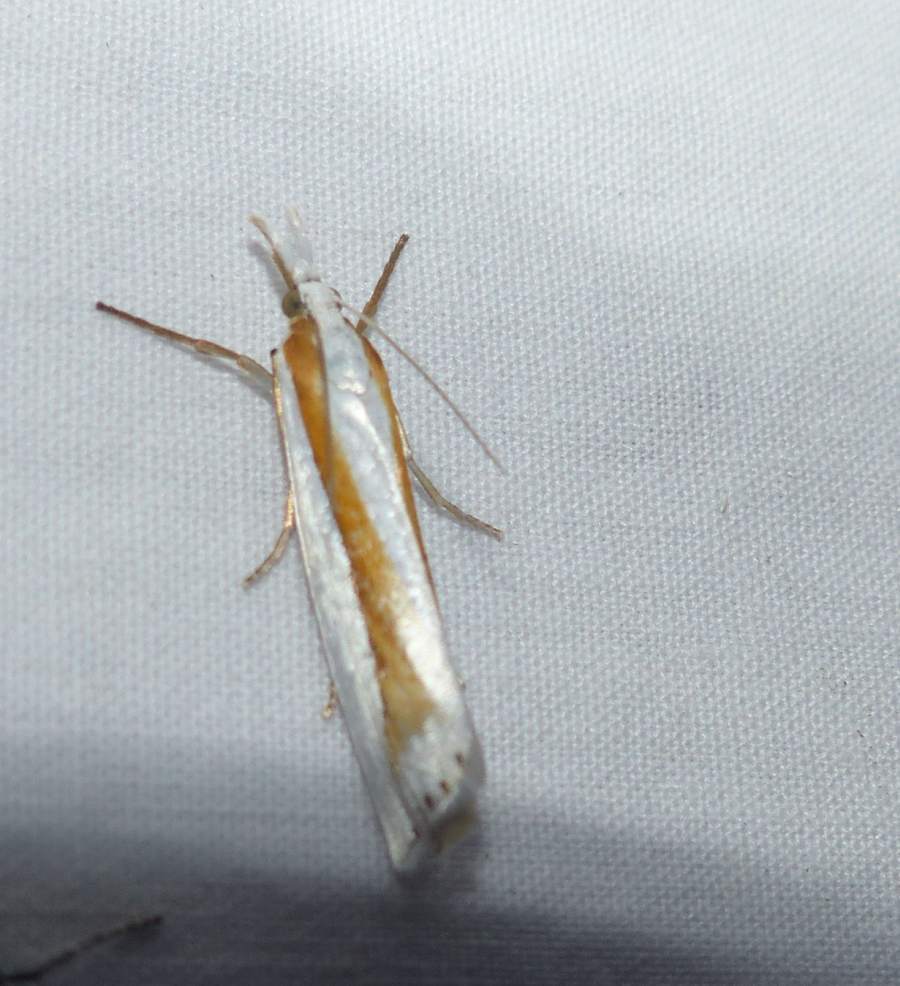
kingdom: Animalia
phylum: Arthropoda
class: Insecta
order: Lepidoptera
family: Crambidae
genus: Crambus
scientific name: Crambus girardellus
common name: Girard's grass-veneer
